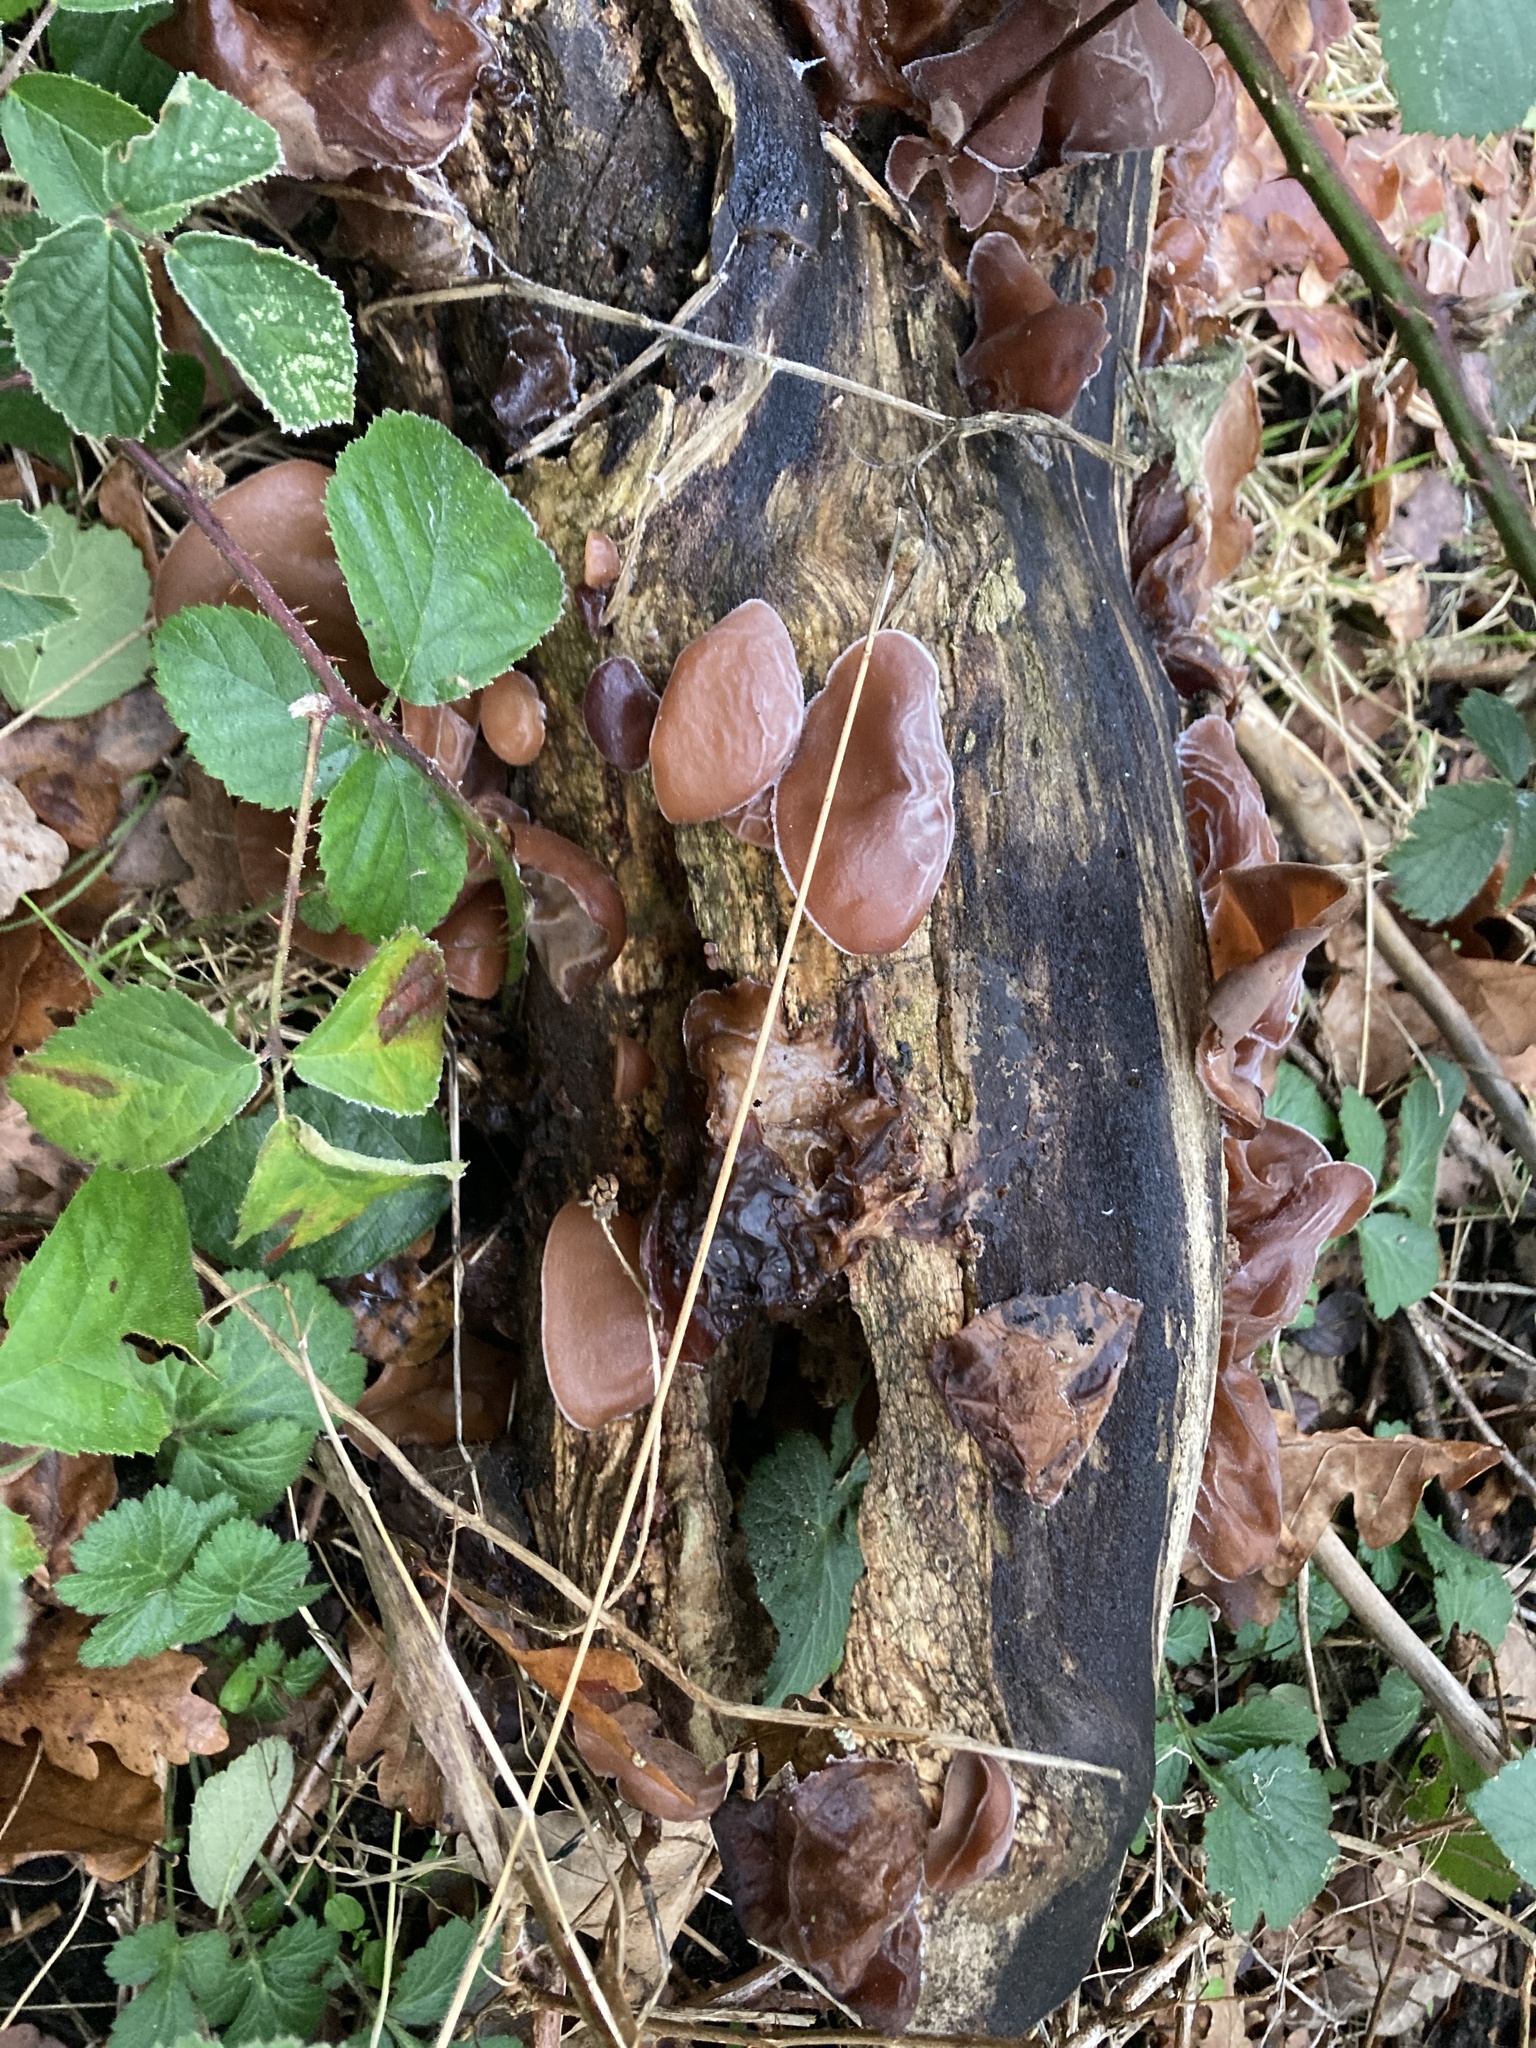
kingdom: Fungi
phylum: Basidiomycota
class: Agaricomycetes
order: Auriculariales
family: Auriculariaceae
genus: Auricularia
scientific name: Auricularia auricula-judae
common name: Jelly ear
